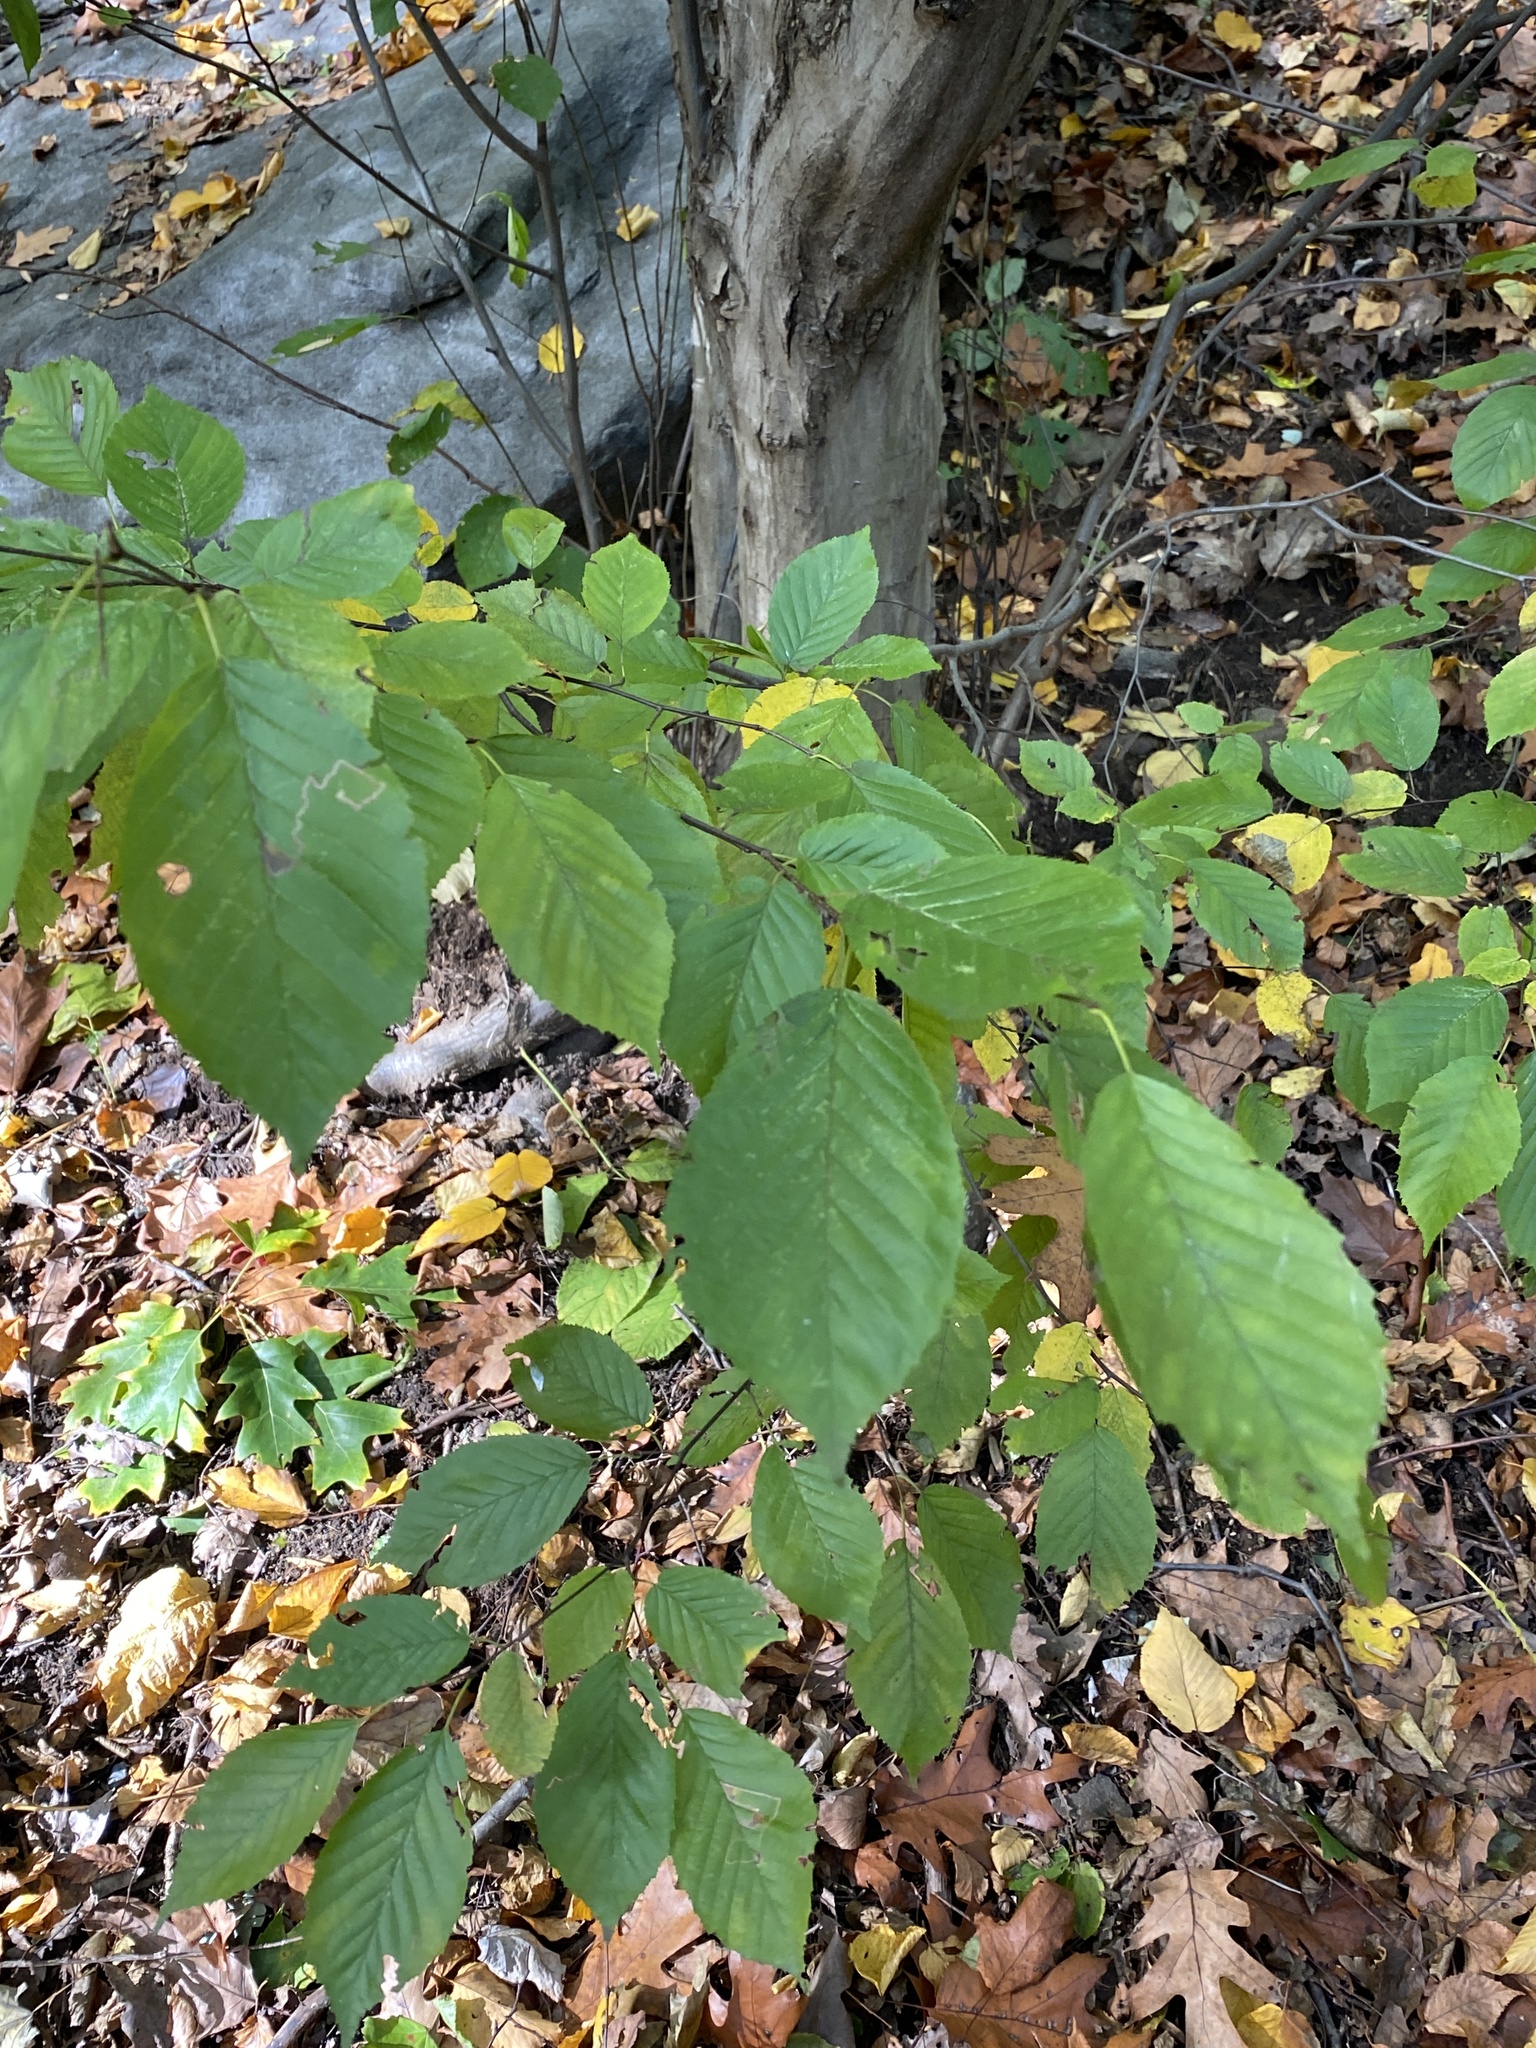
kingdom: Plantae
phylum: Tracheophyta
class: Magnoliopsida
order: Fagales
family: Betulaceae
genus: Carpinus
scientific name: Carpinus caroliniana
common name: American hornbeam
